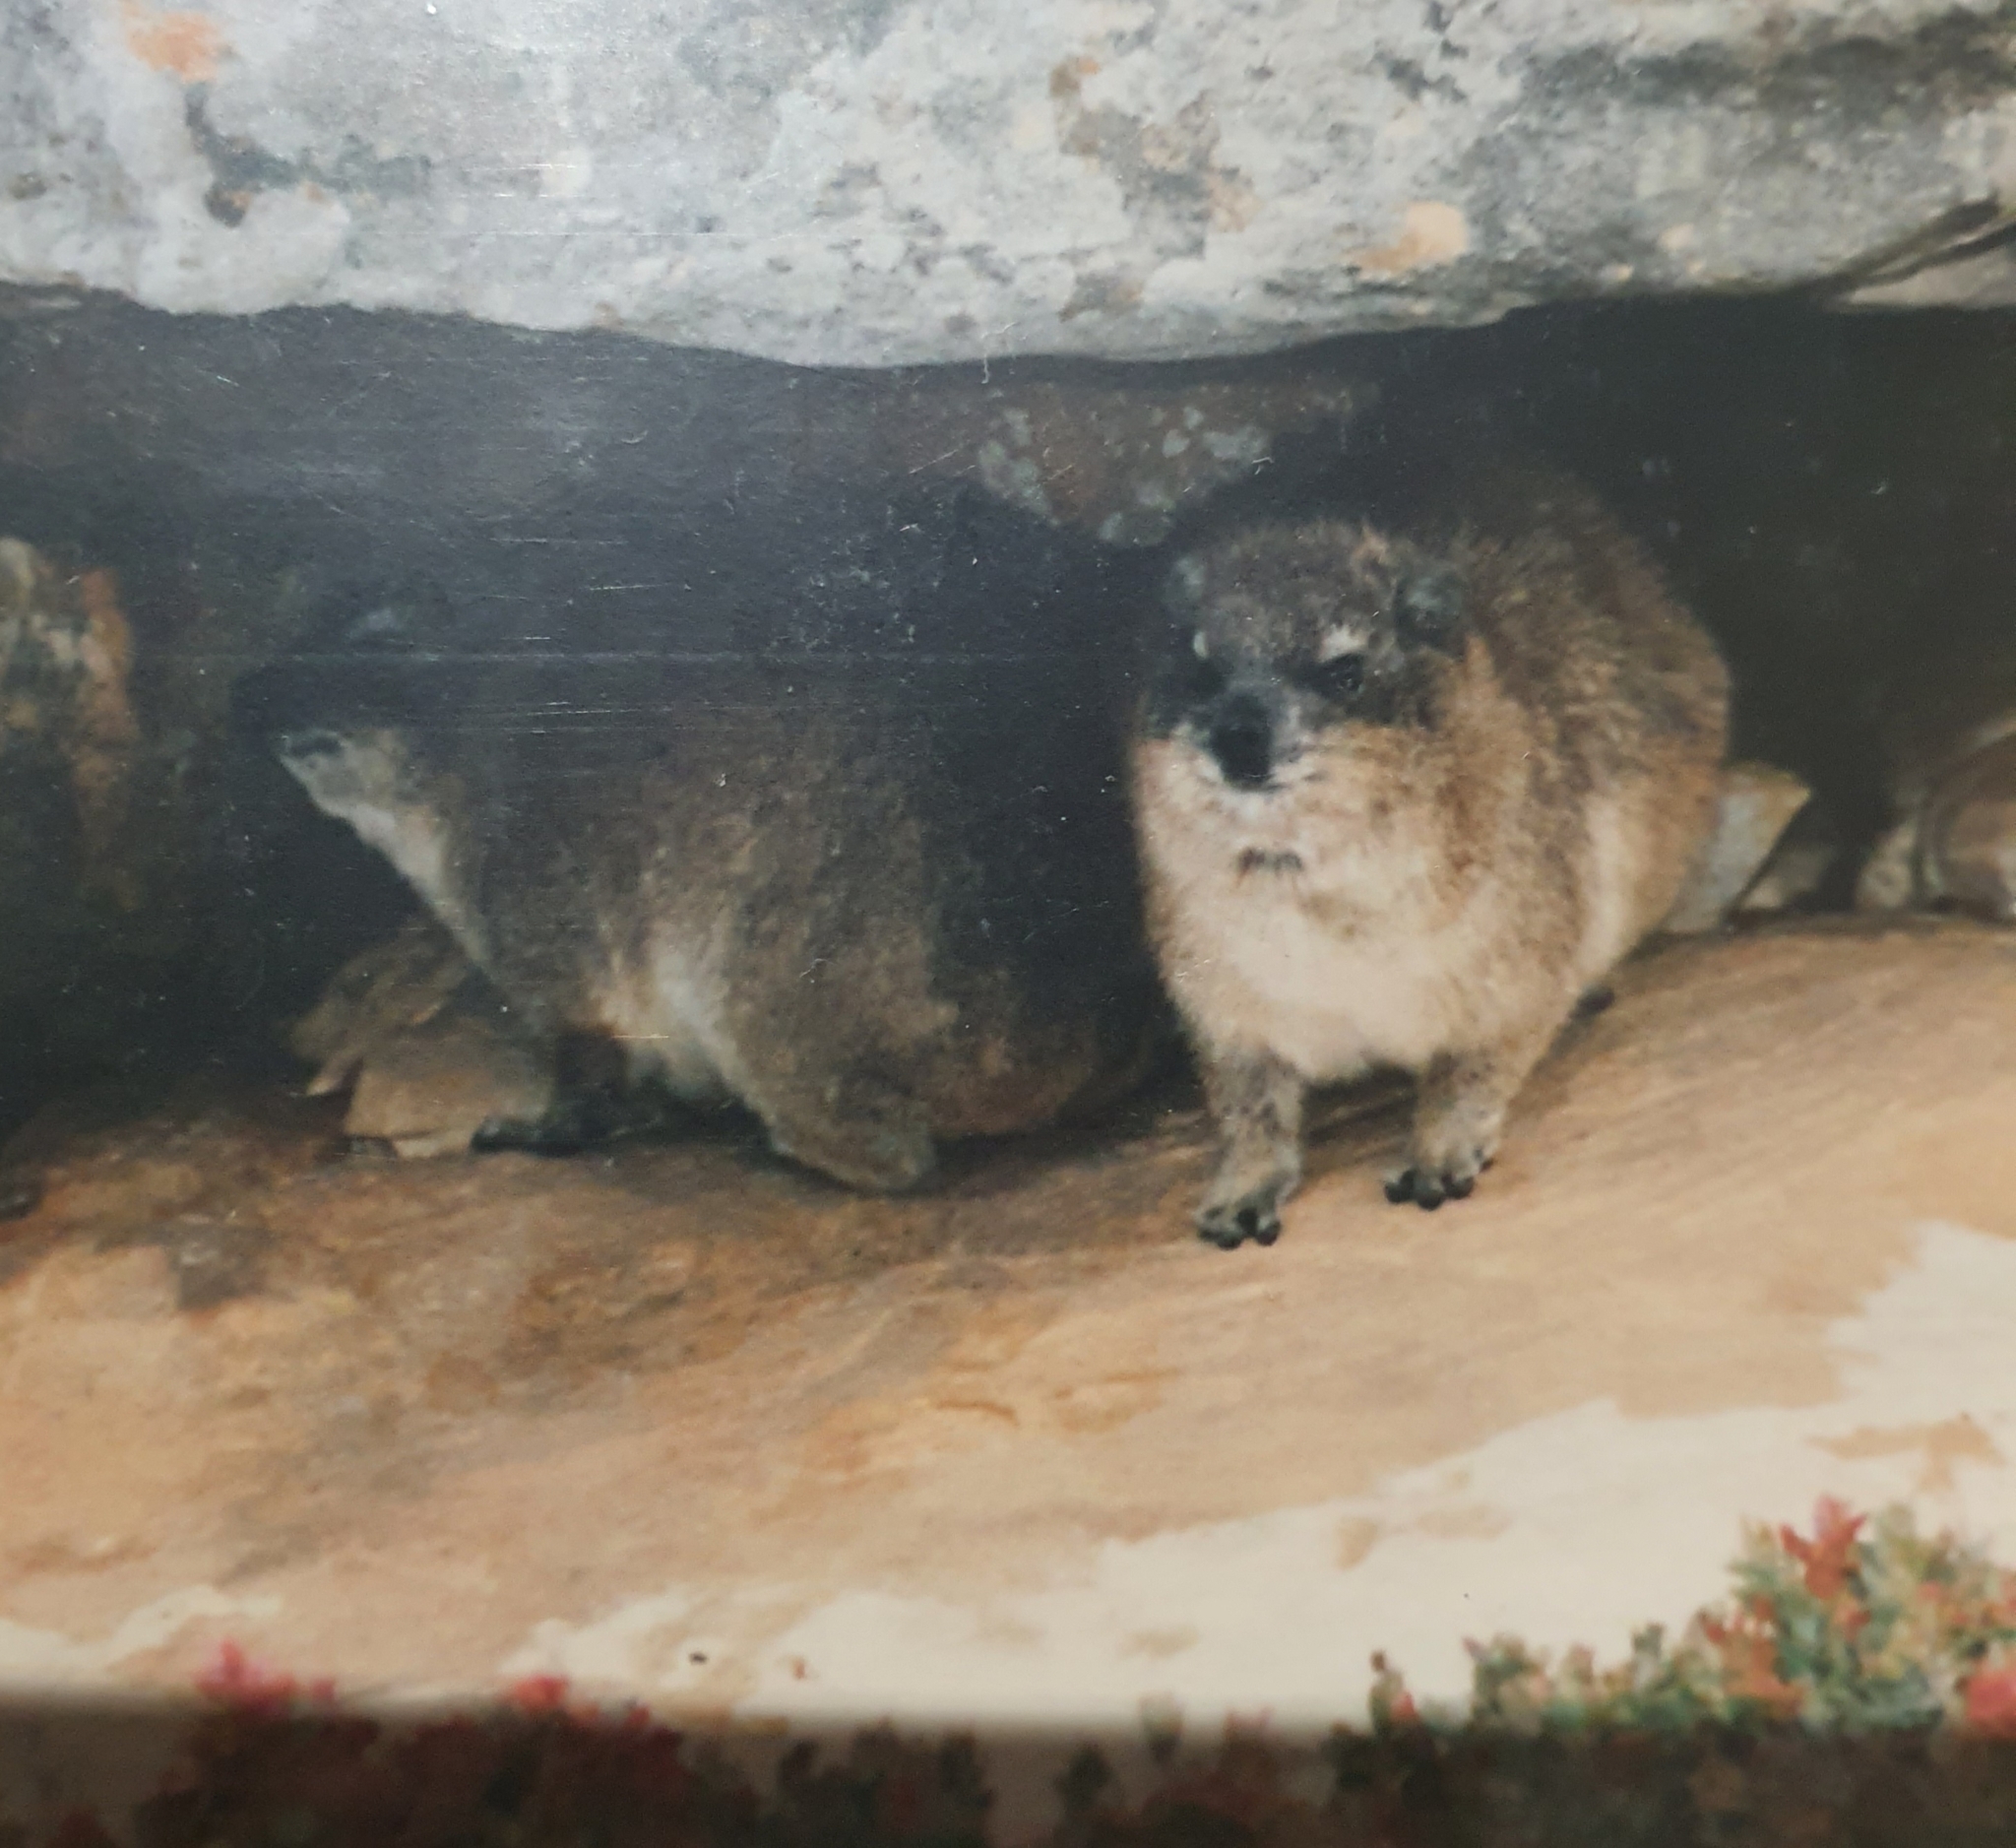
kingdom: Animalia
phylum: Chordata
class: Mammalia
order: Hyracoidea
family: Procaviidae
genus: Procavia
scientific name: Procavia capensis
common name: Rock hyrax
